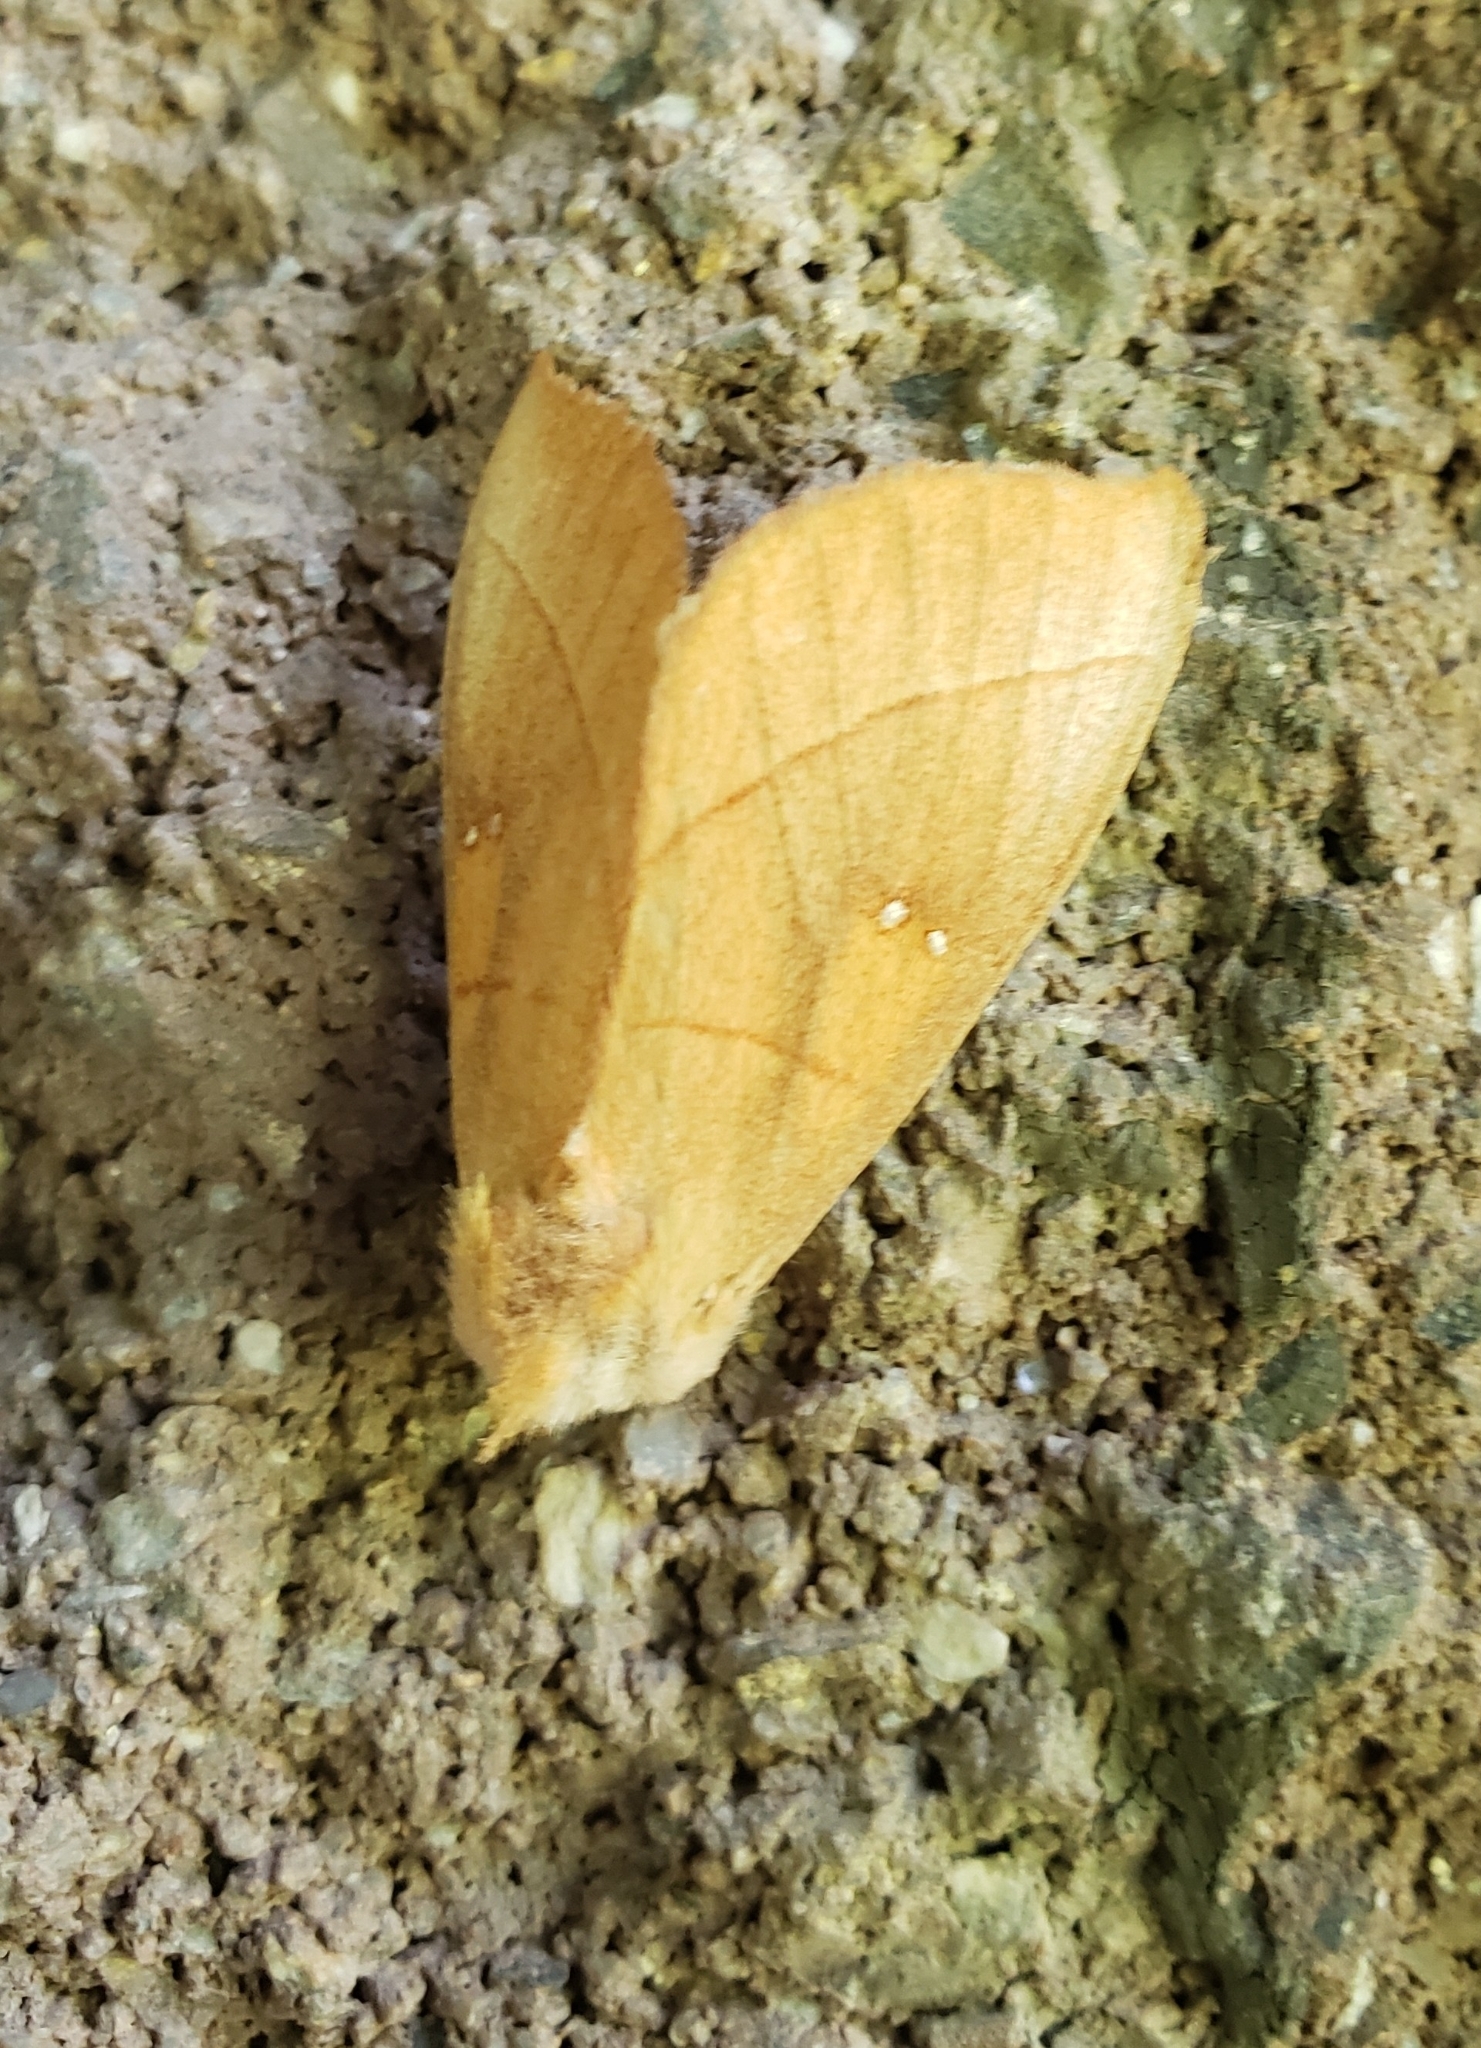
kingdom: Animalia
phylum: Arthropoda
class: Insecta
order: Lepidoptera
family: Notodontidae
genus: Nadata
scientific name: Nadata gibbosa
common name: White-dotted prominent
